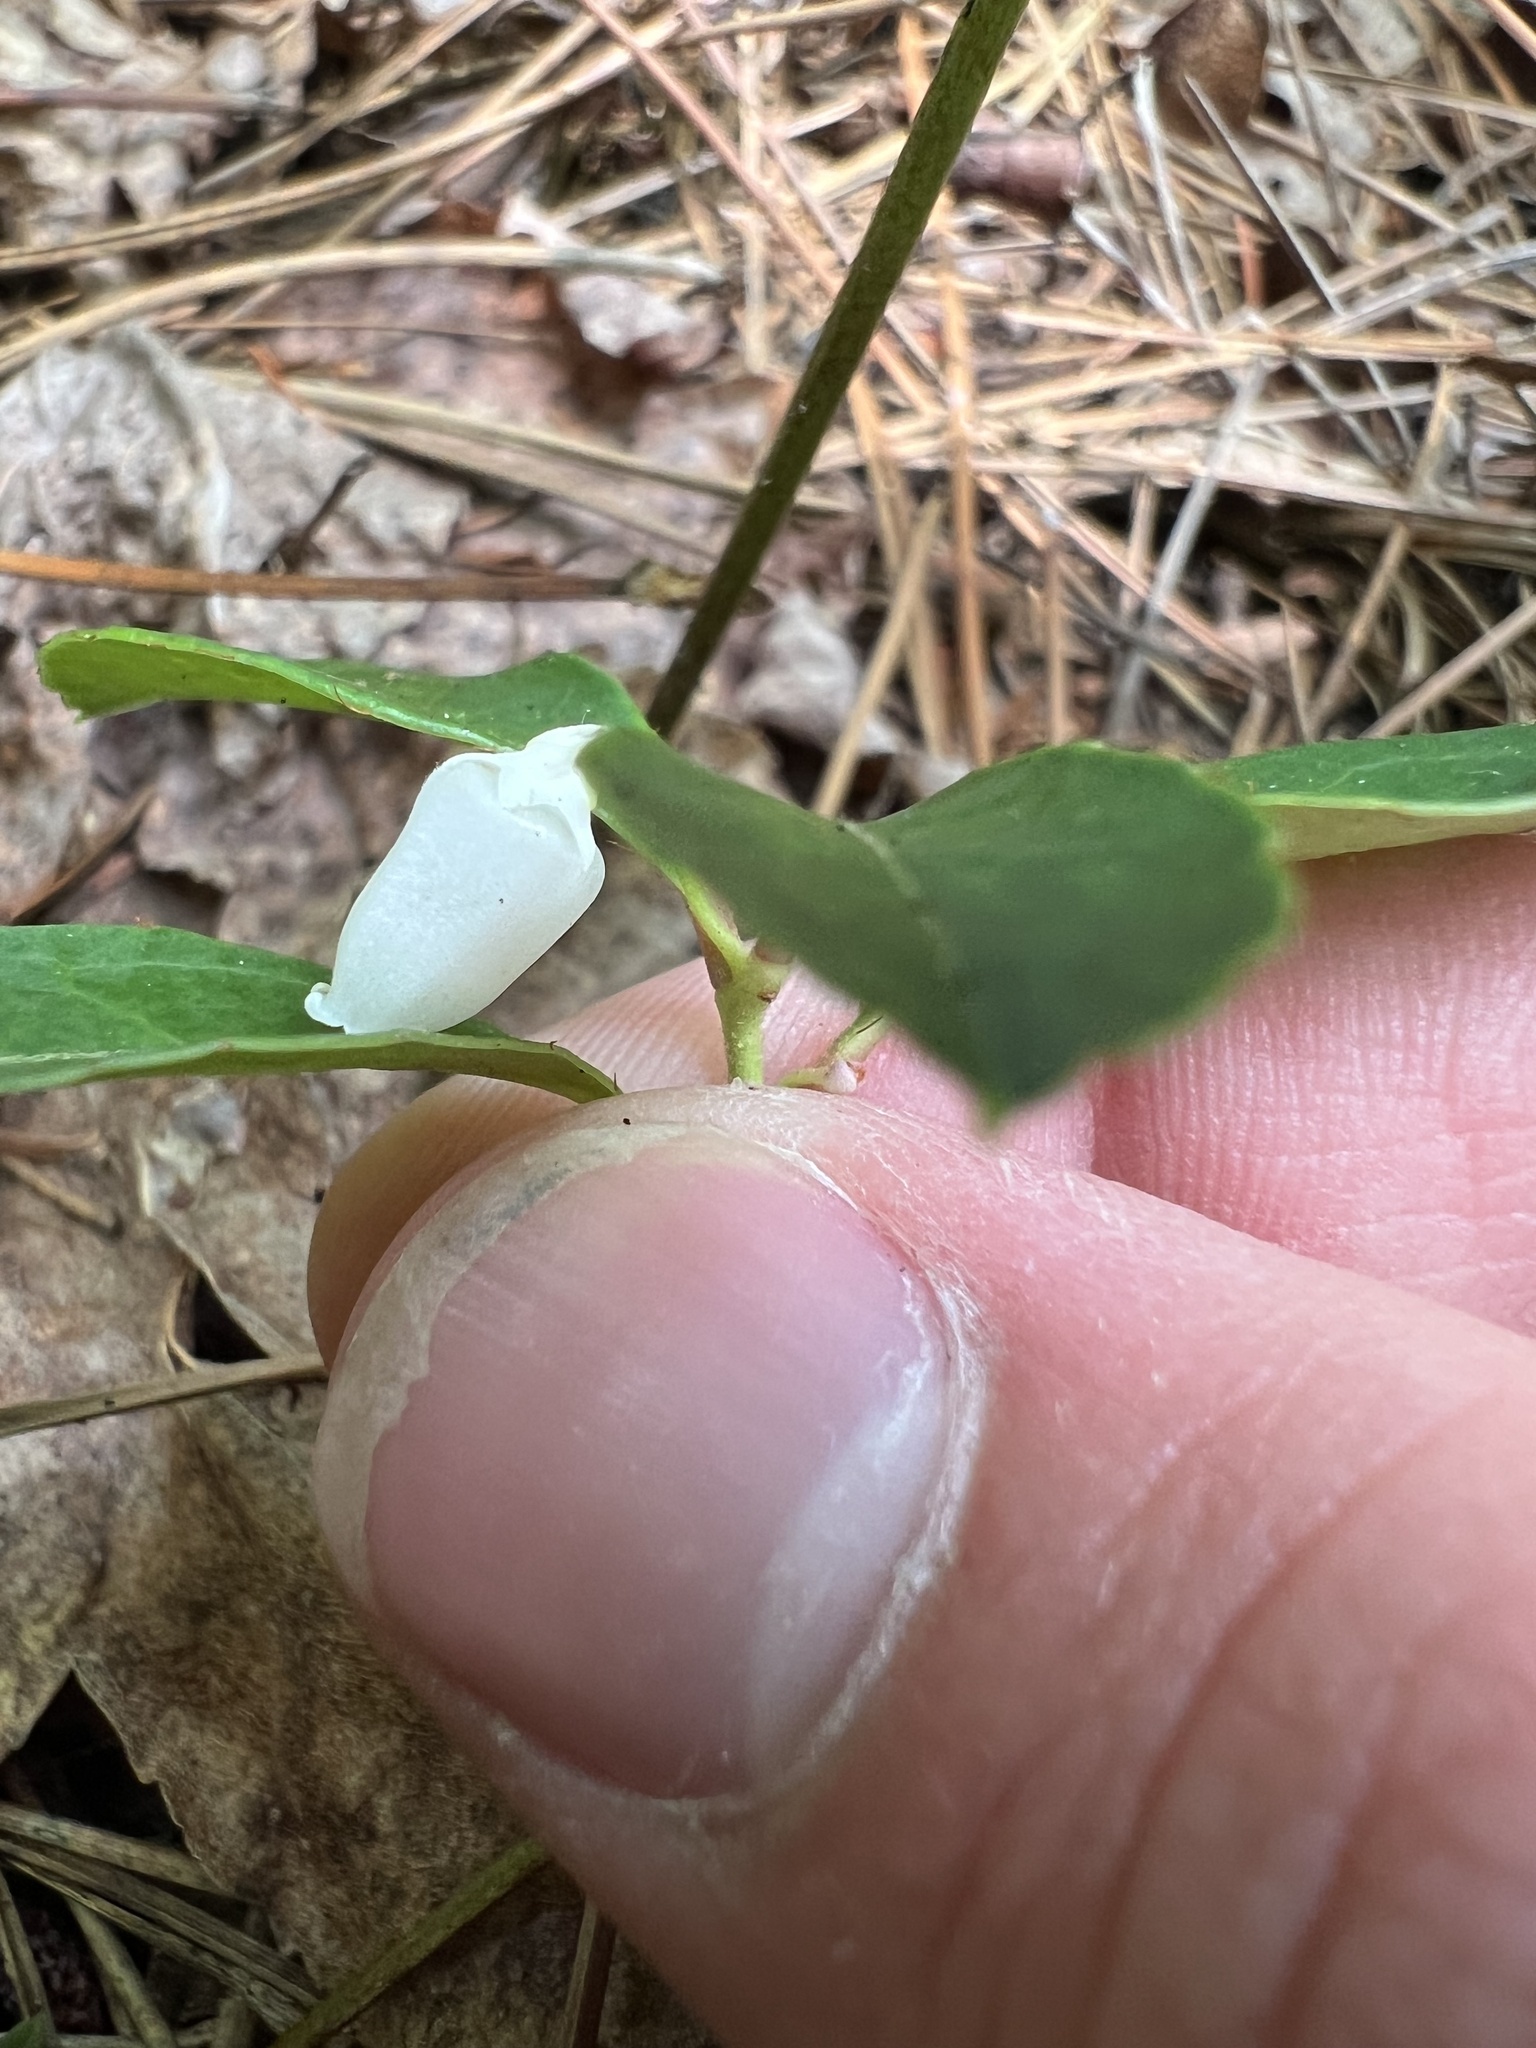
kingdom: Plantae
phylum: Tracheophyta
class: Magnoliopsida
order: Ericales
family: Ericaceae
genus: Gaultheria
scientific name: Gaultheria procumbens
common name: Checkerberry
